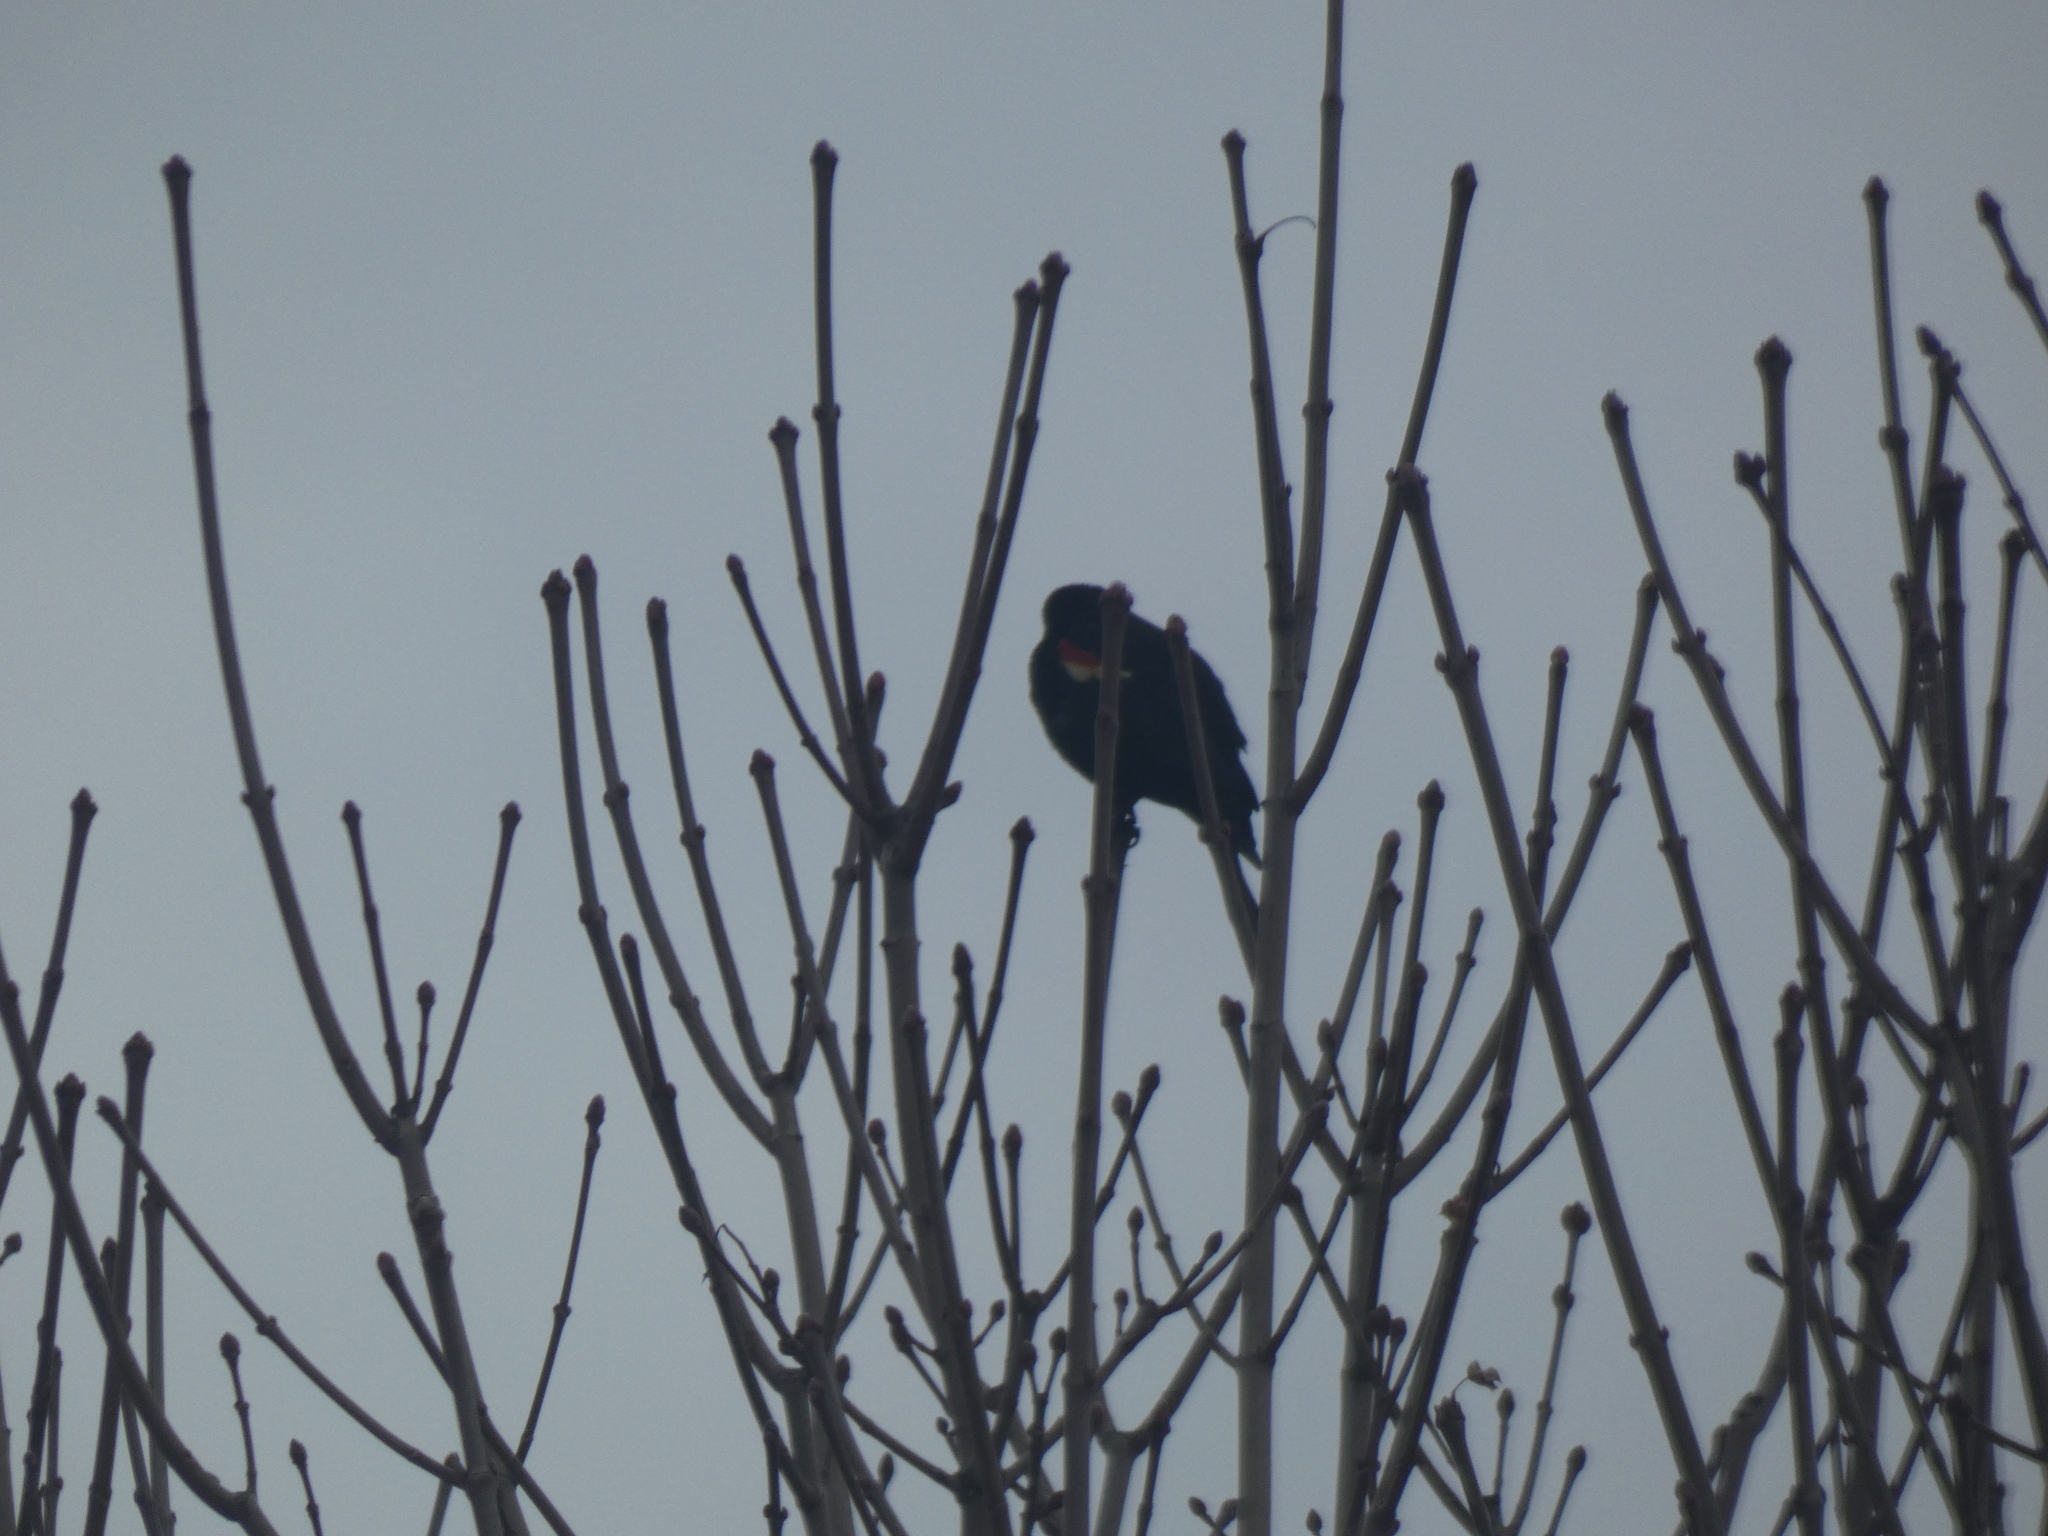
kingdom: Animalia
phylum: Chordata
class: Aves
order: Passeriformes
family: Icteridae
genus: Agelaius
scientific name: Agelaius phoeniceus
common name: Red-winged blackbird
